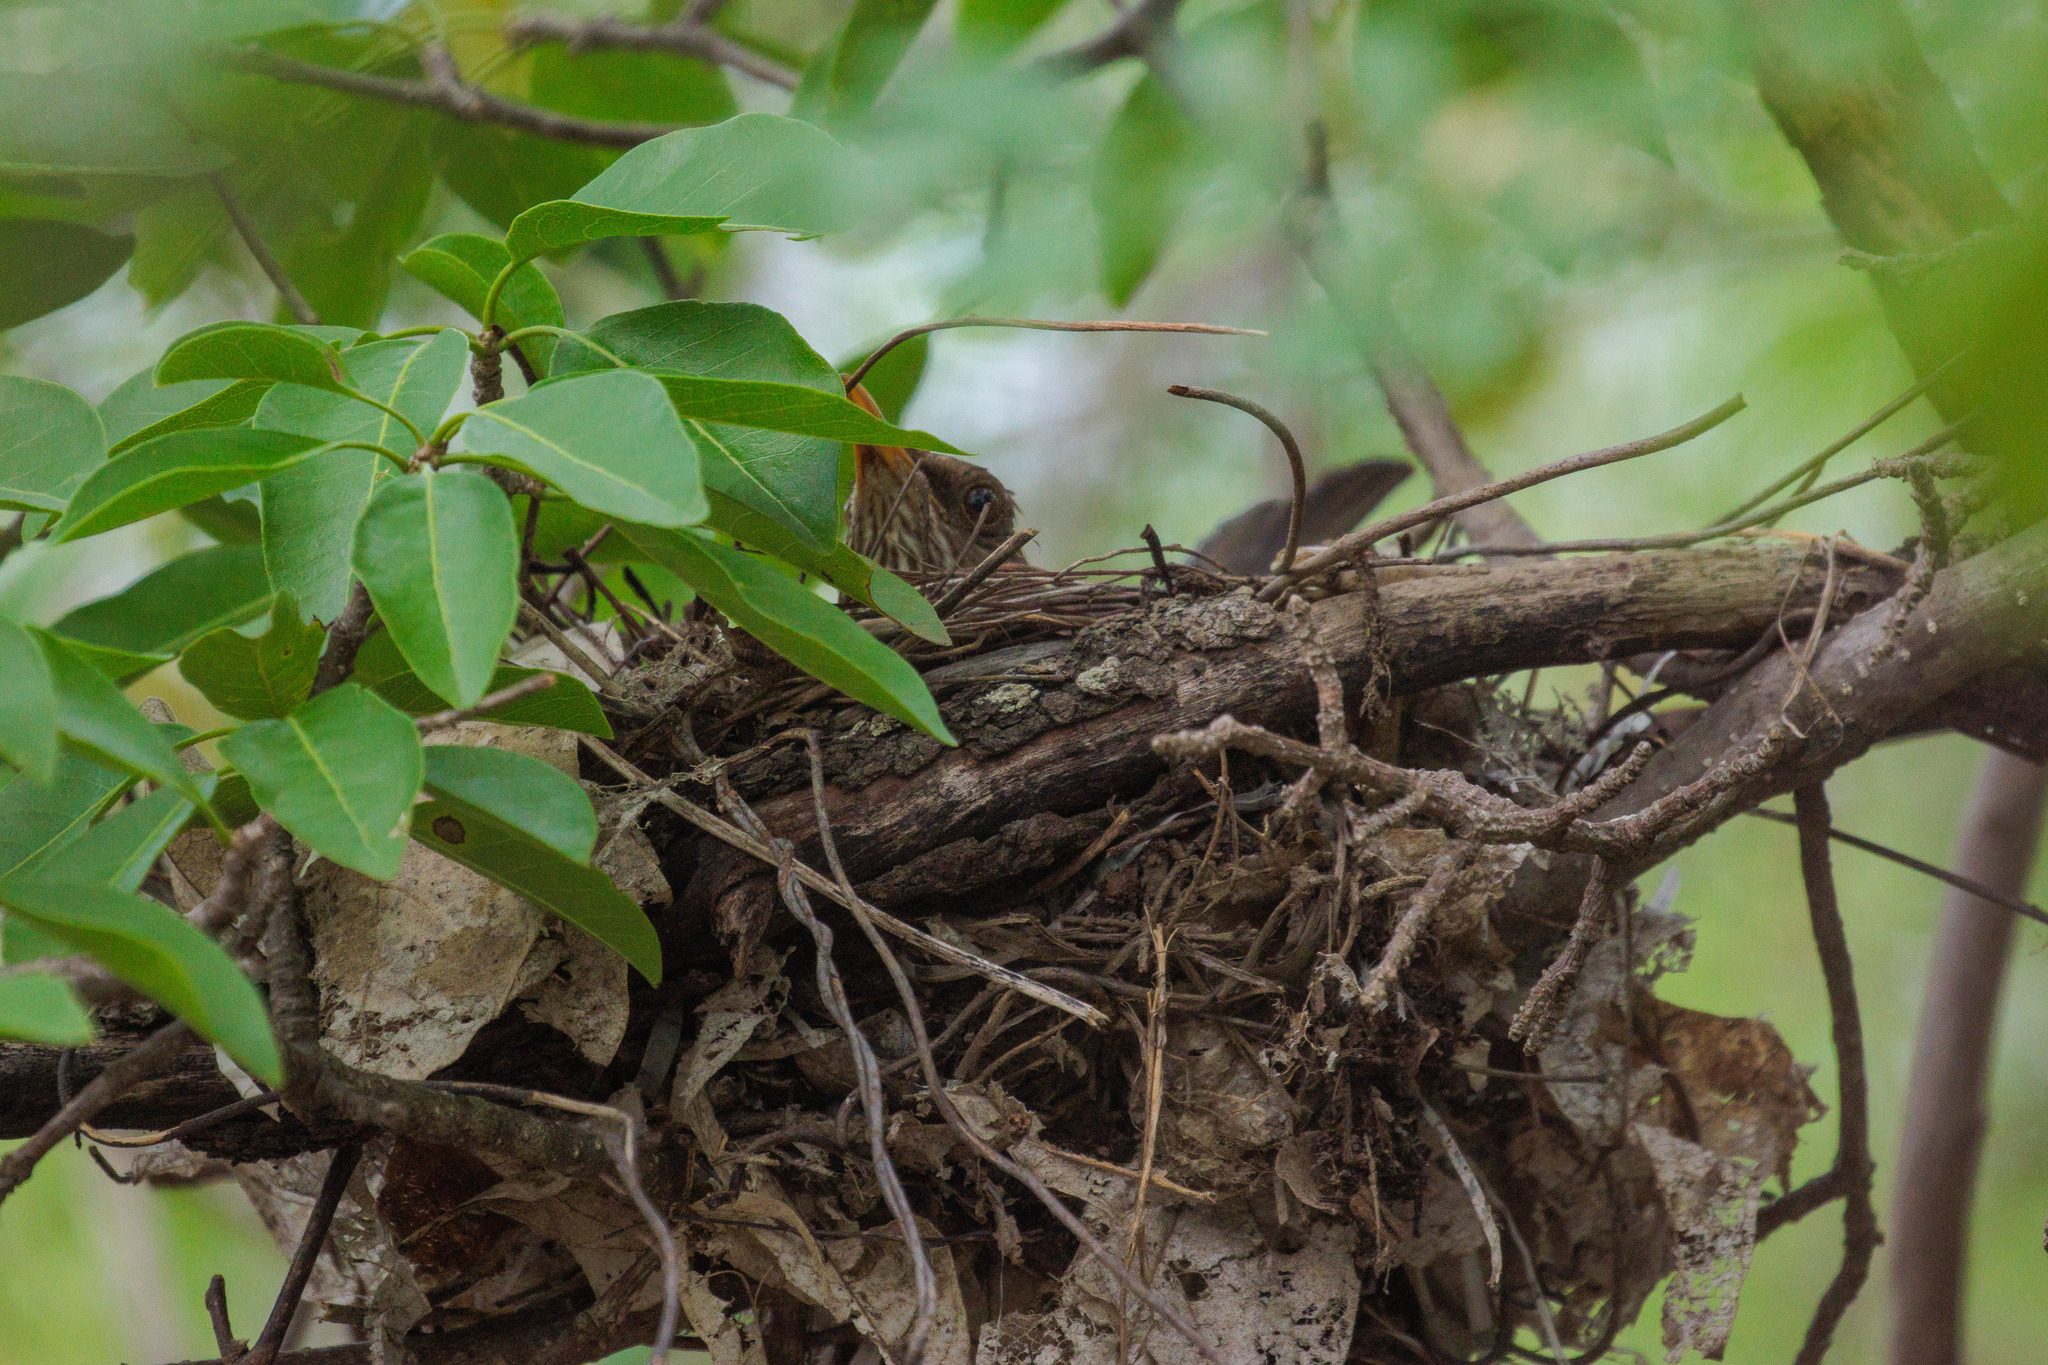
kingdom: Animalia
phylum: Chordata
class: Aves
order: Passeriformes
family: Turdidae
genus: Turdus
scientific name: Turdus amaurochalinus
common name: Creamy-bellied thrush
